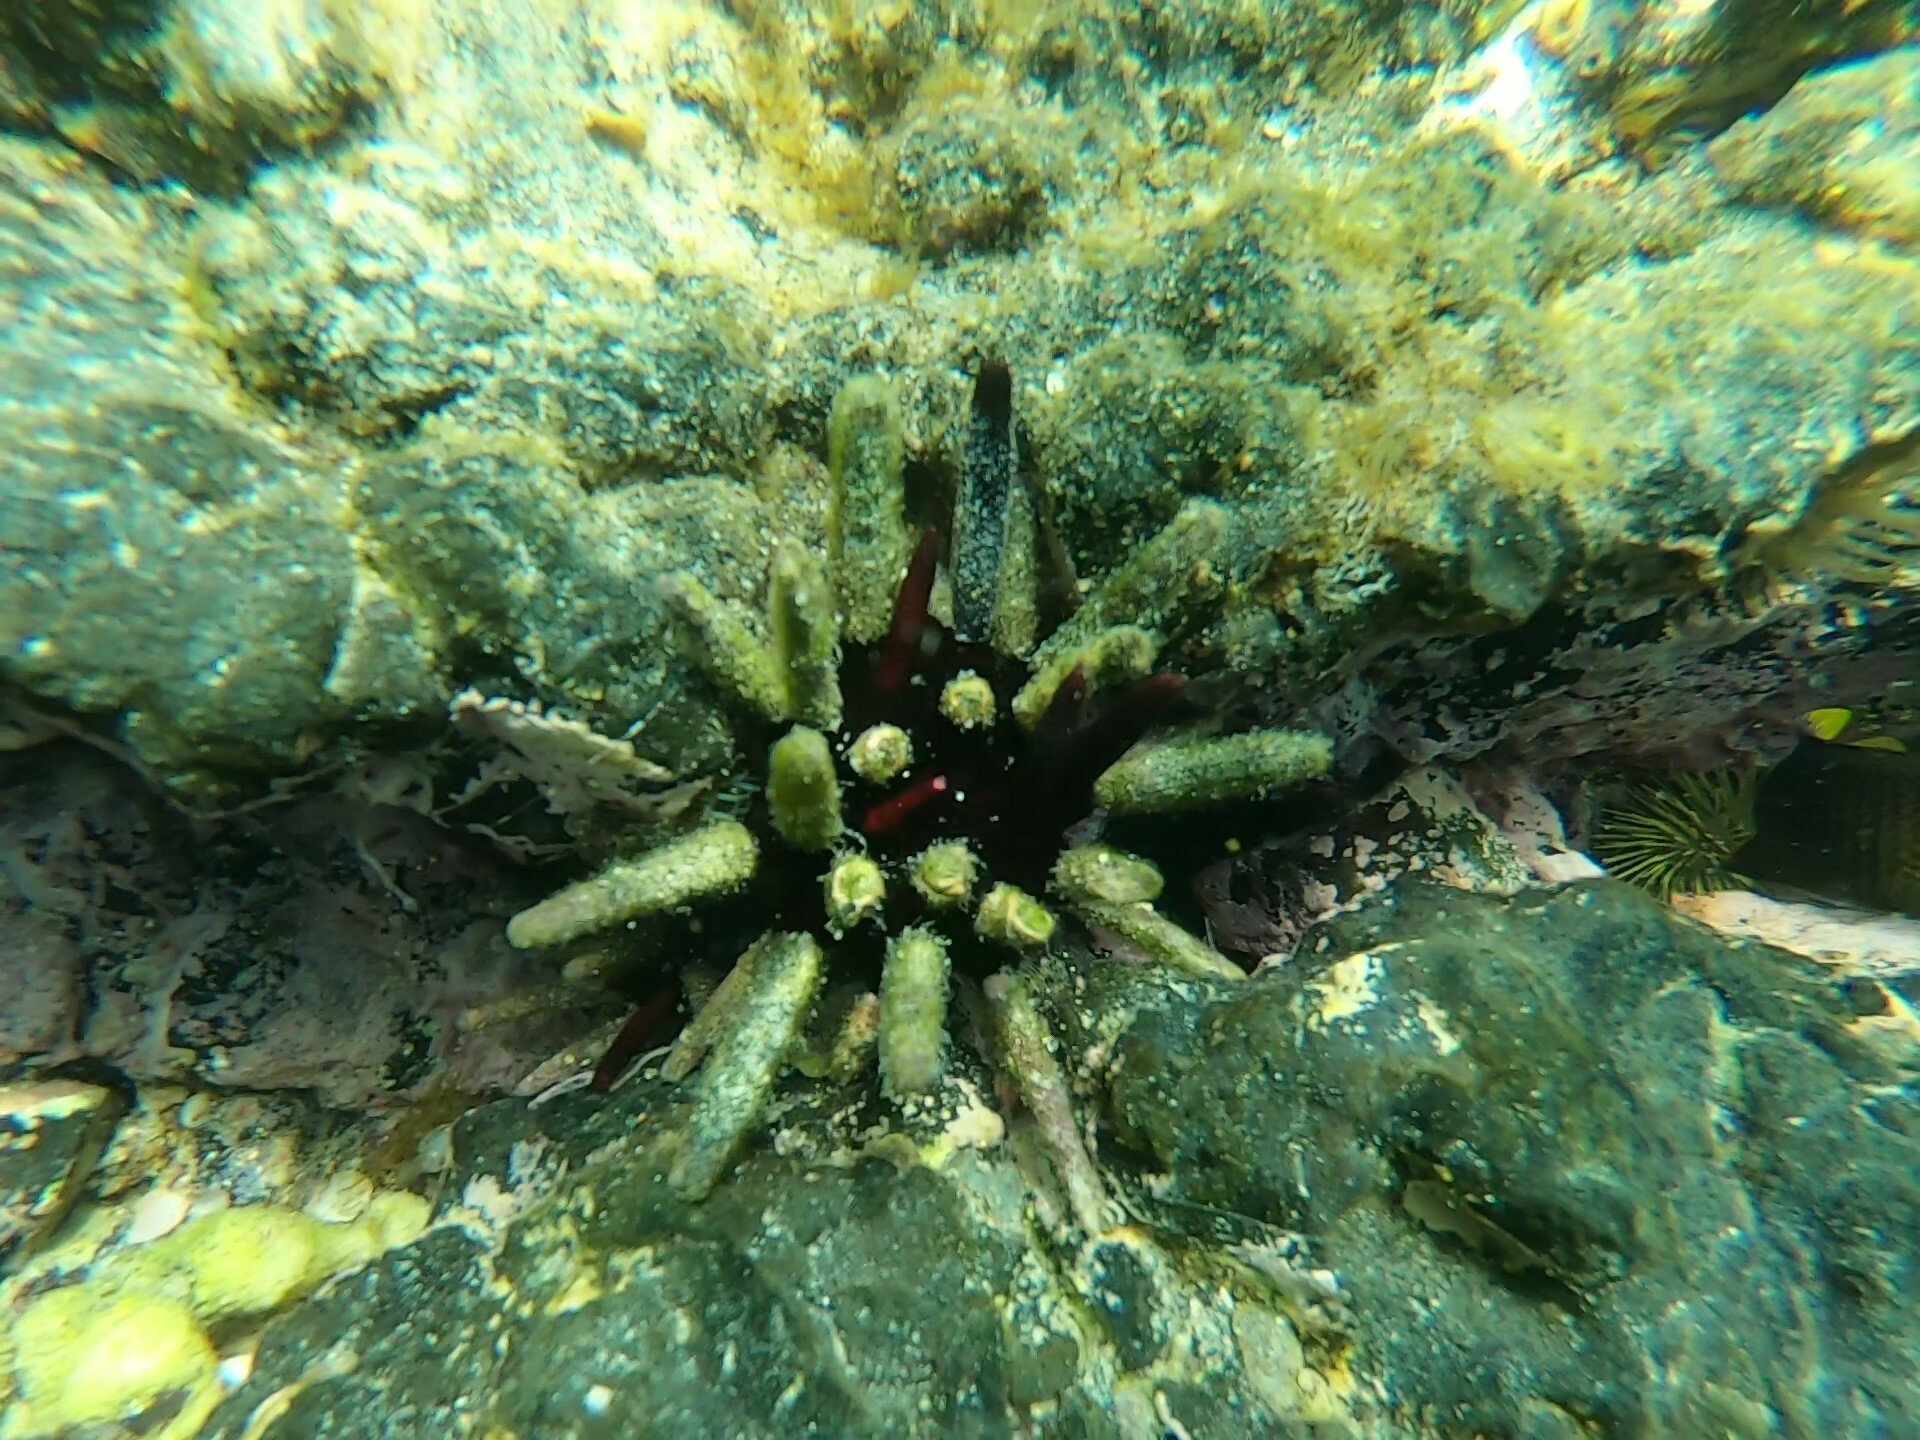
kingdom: Animalia
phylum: Echinodermata
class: Echinoidea
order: Cidaroida
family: Cidaridae
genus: Eucidaris
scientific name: Eucidaris galapagensis
